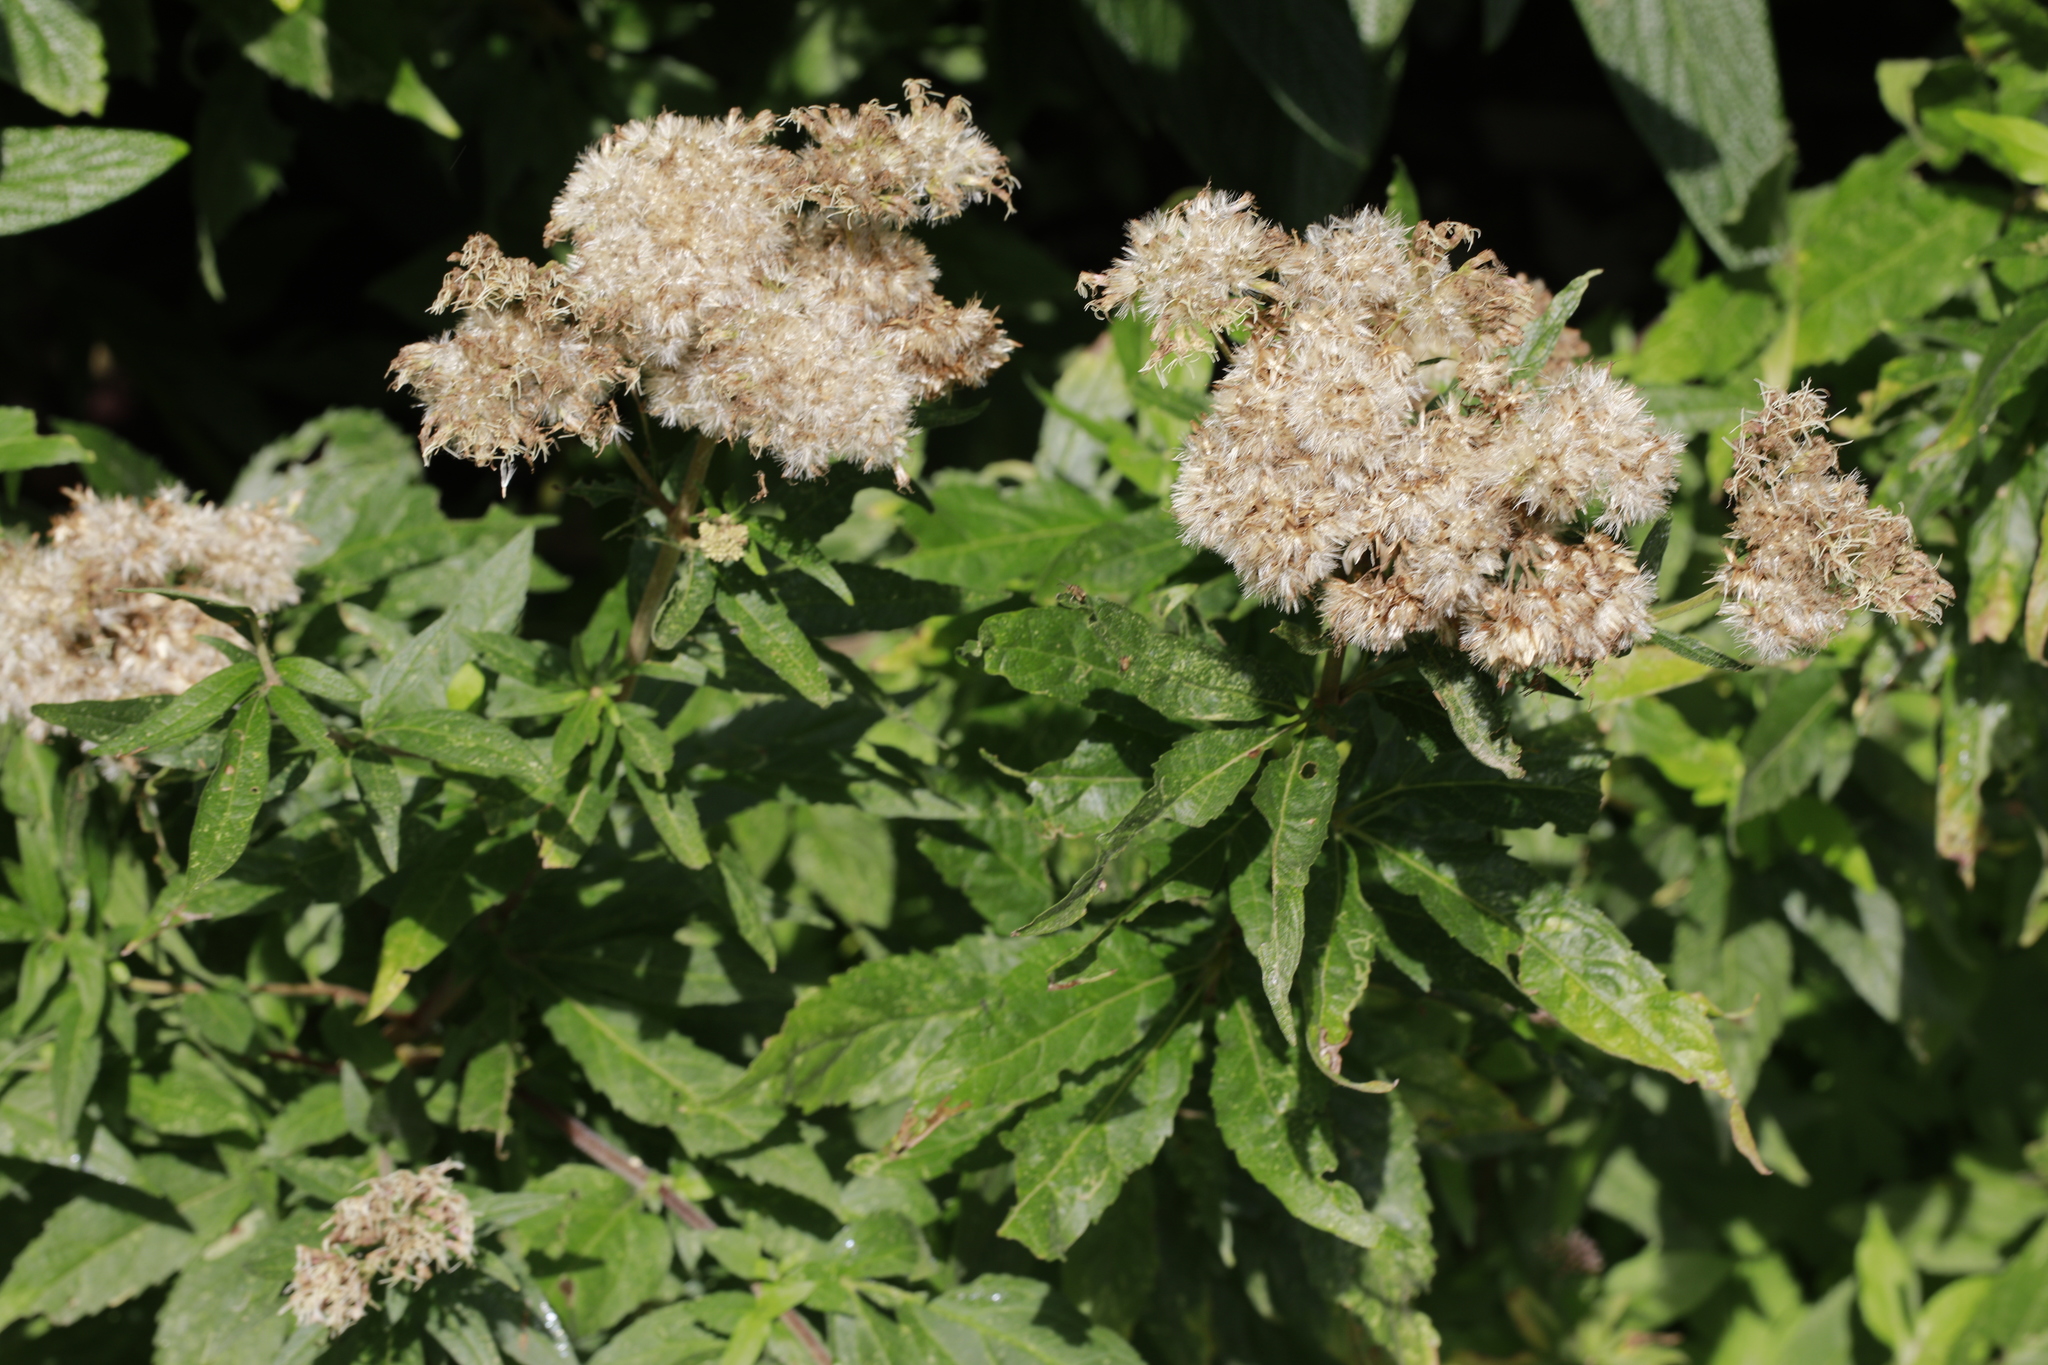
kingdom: Plantae
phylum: Tracheophyta
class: Magnoliopsida
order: Asterales
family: Asteraceae
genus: Eupatorium
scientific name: Eupatorium cannabinum
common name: Hemp-agrimony
